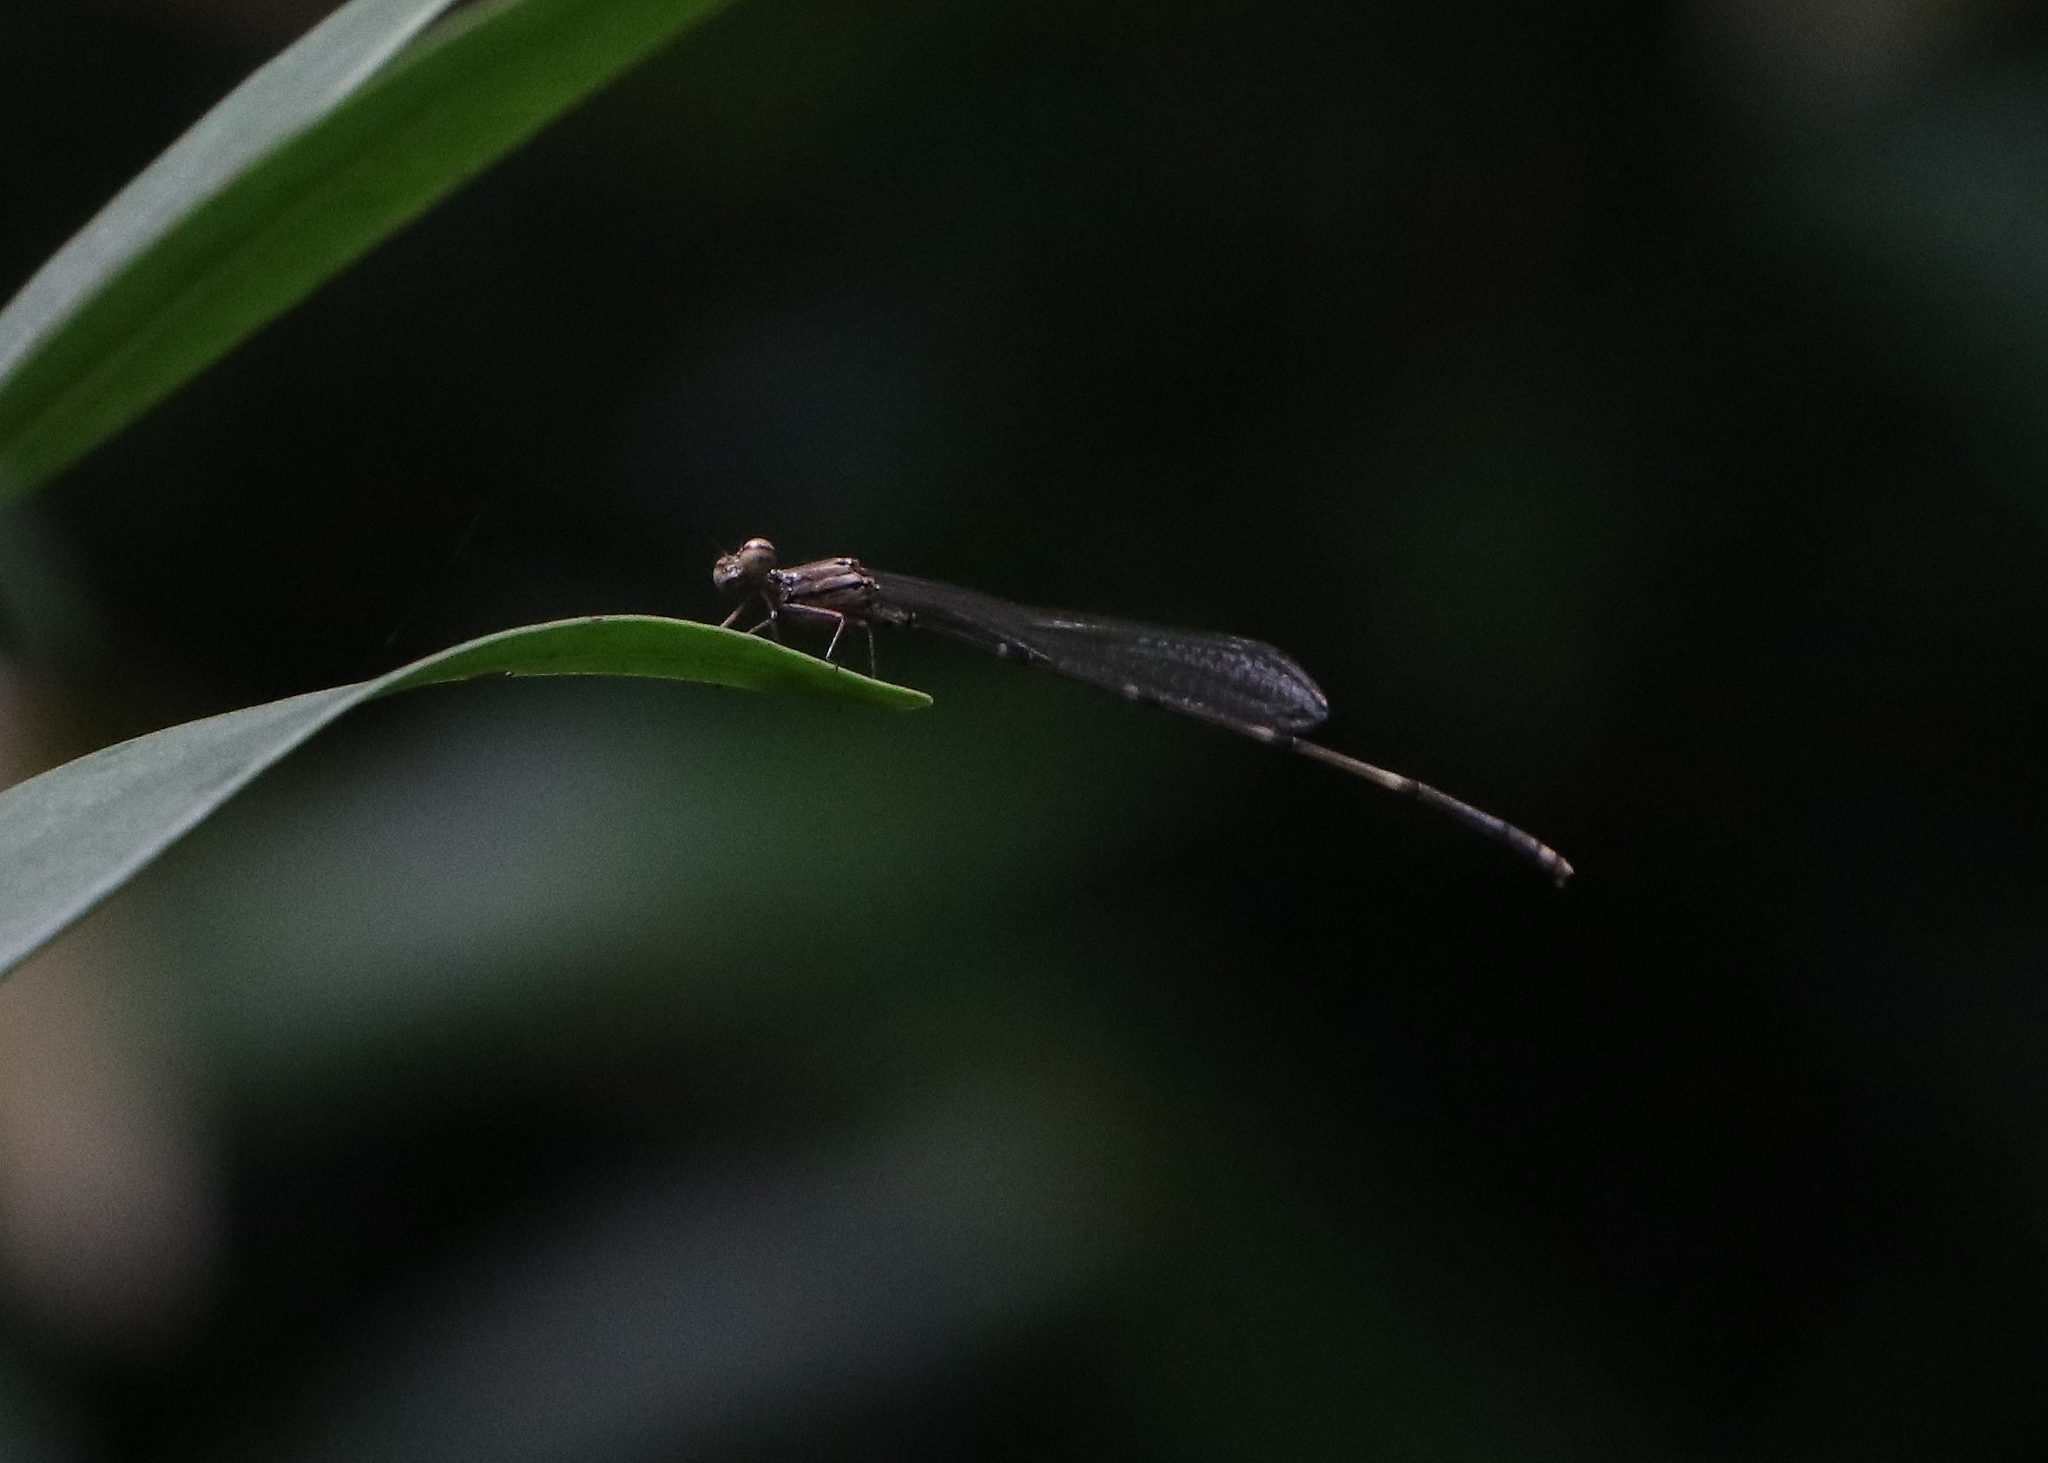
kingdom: Animalia
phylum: Arthropoda
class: Insecta
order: Odonata
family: Platycnemididae
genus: Prodasineura
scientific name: Prodasineura verticalis
